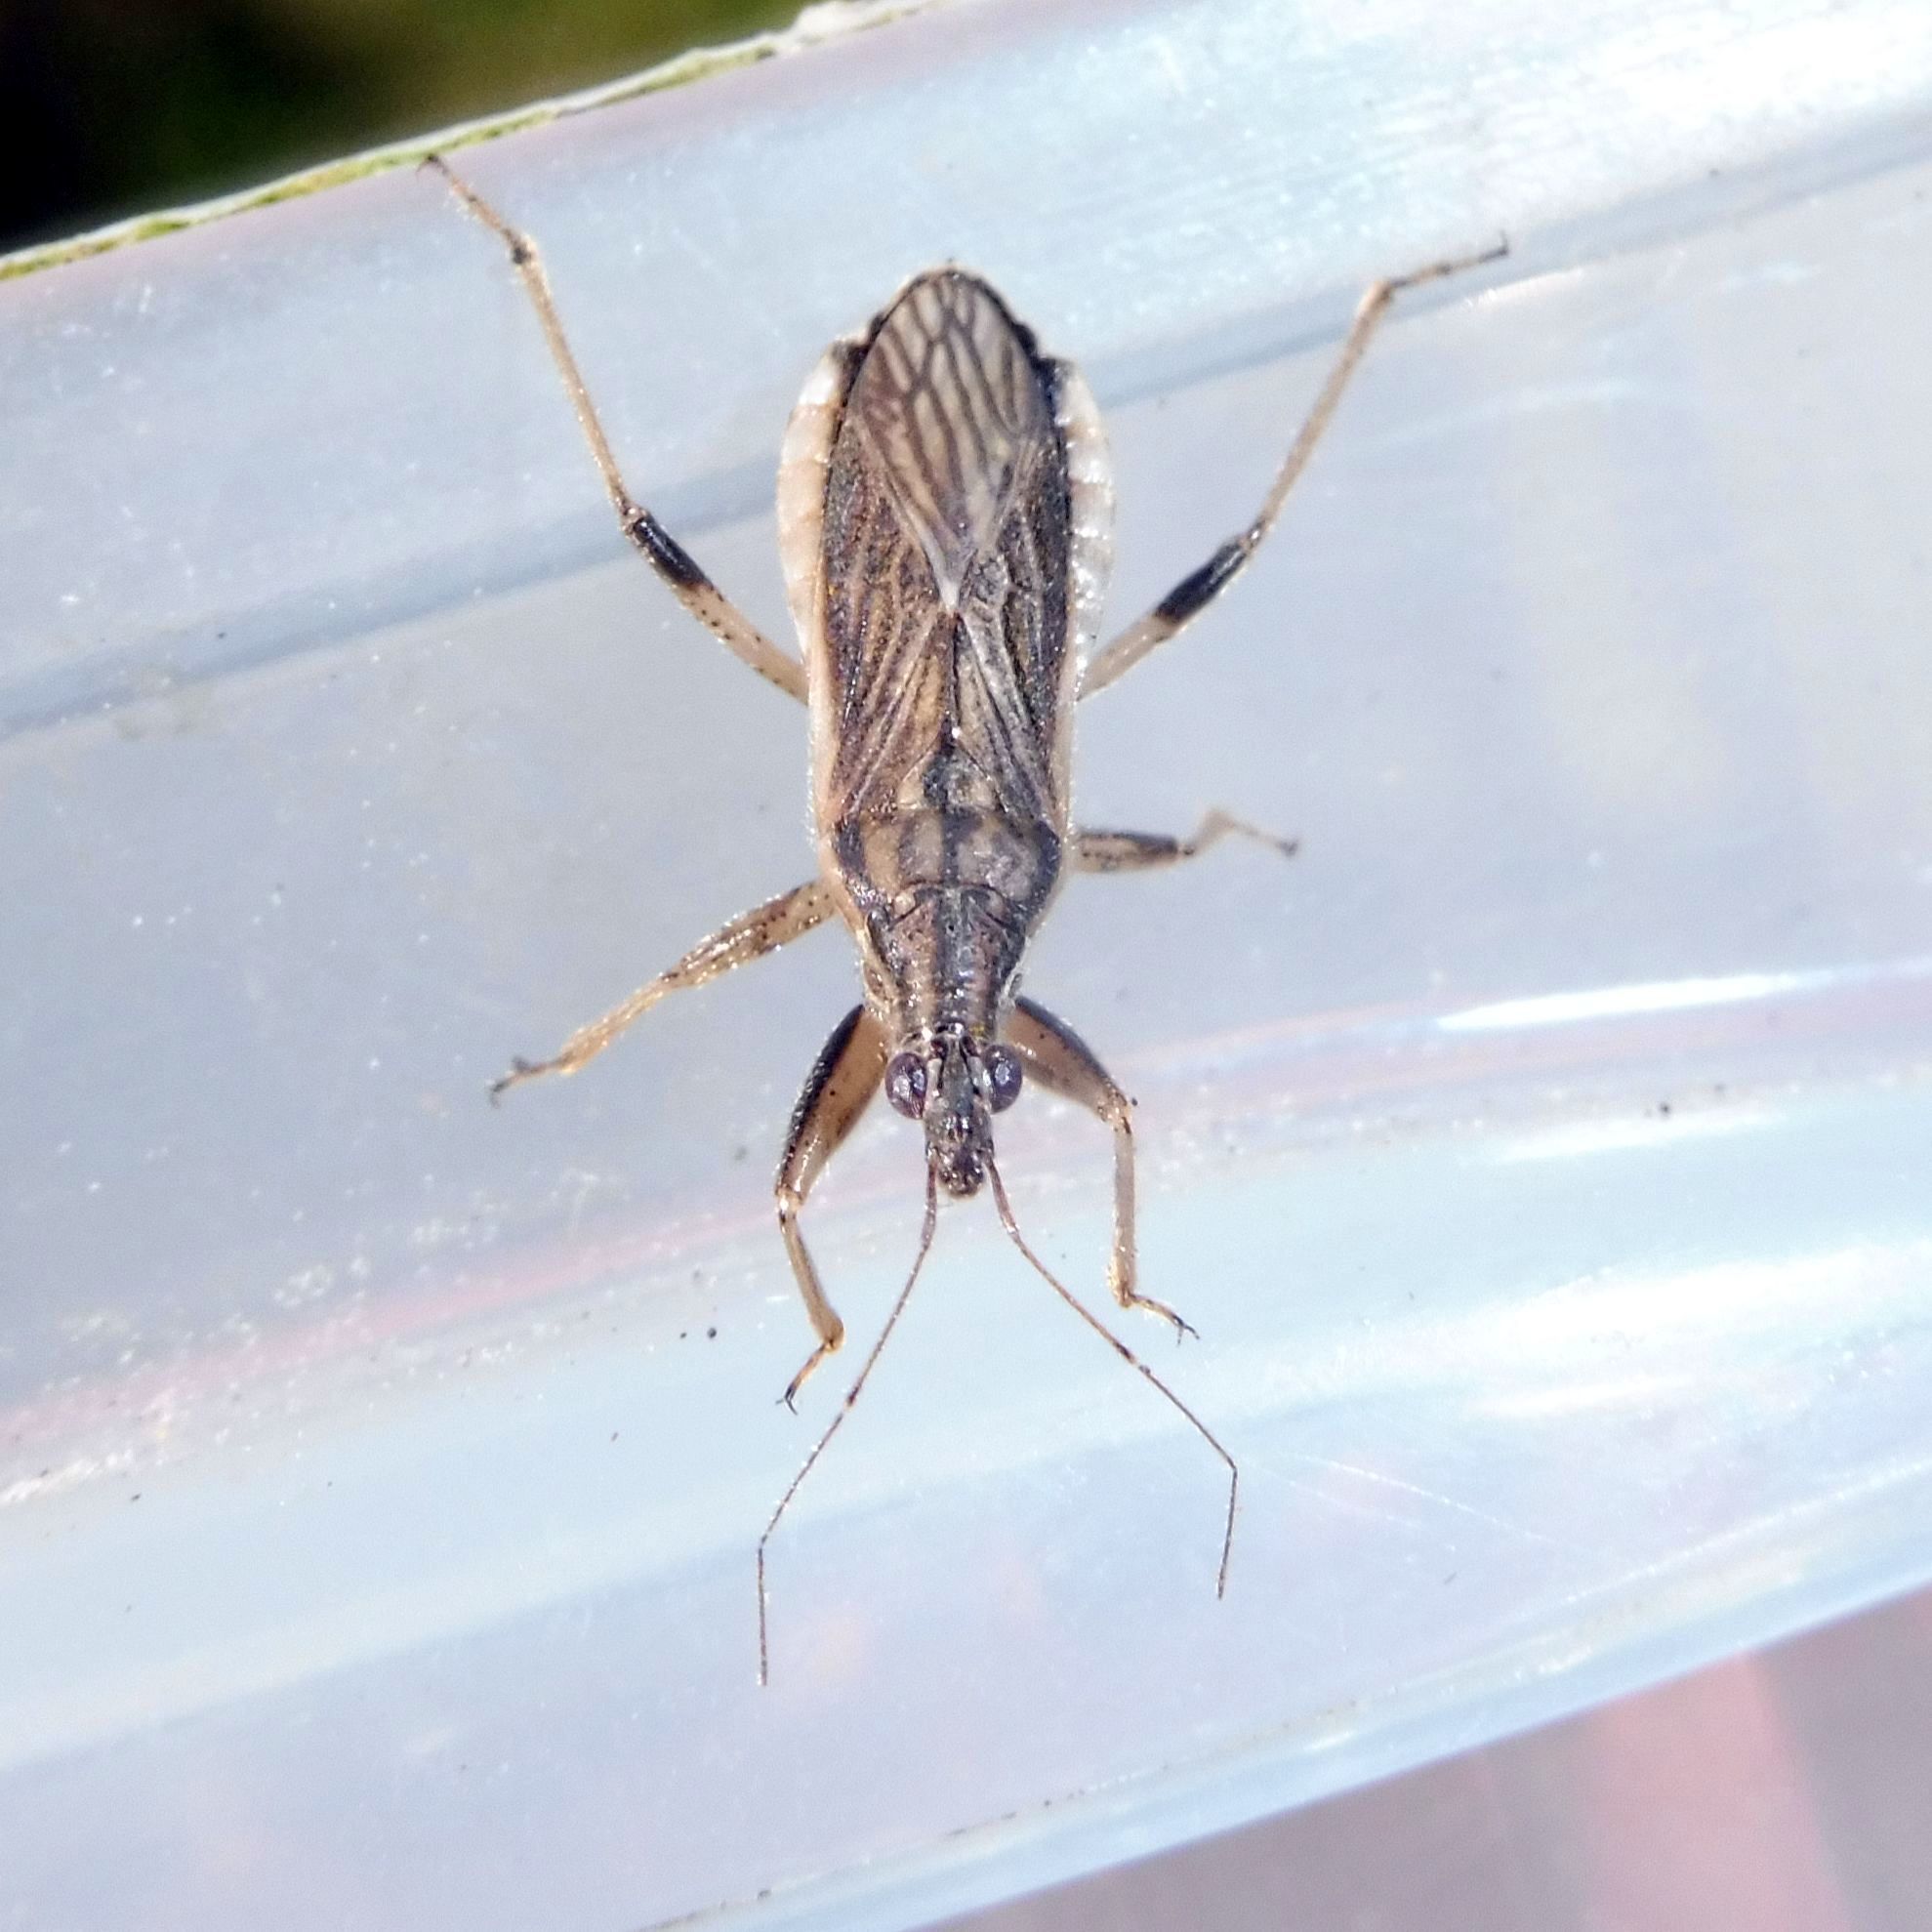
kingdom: Animalia
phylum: Arthropoda
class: Insecta
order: Hemiptera
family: Nabidae
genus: Himacerus
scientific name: Himacerus major
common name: Damsel bug
